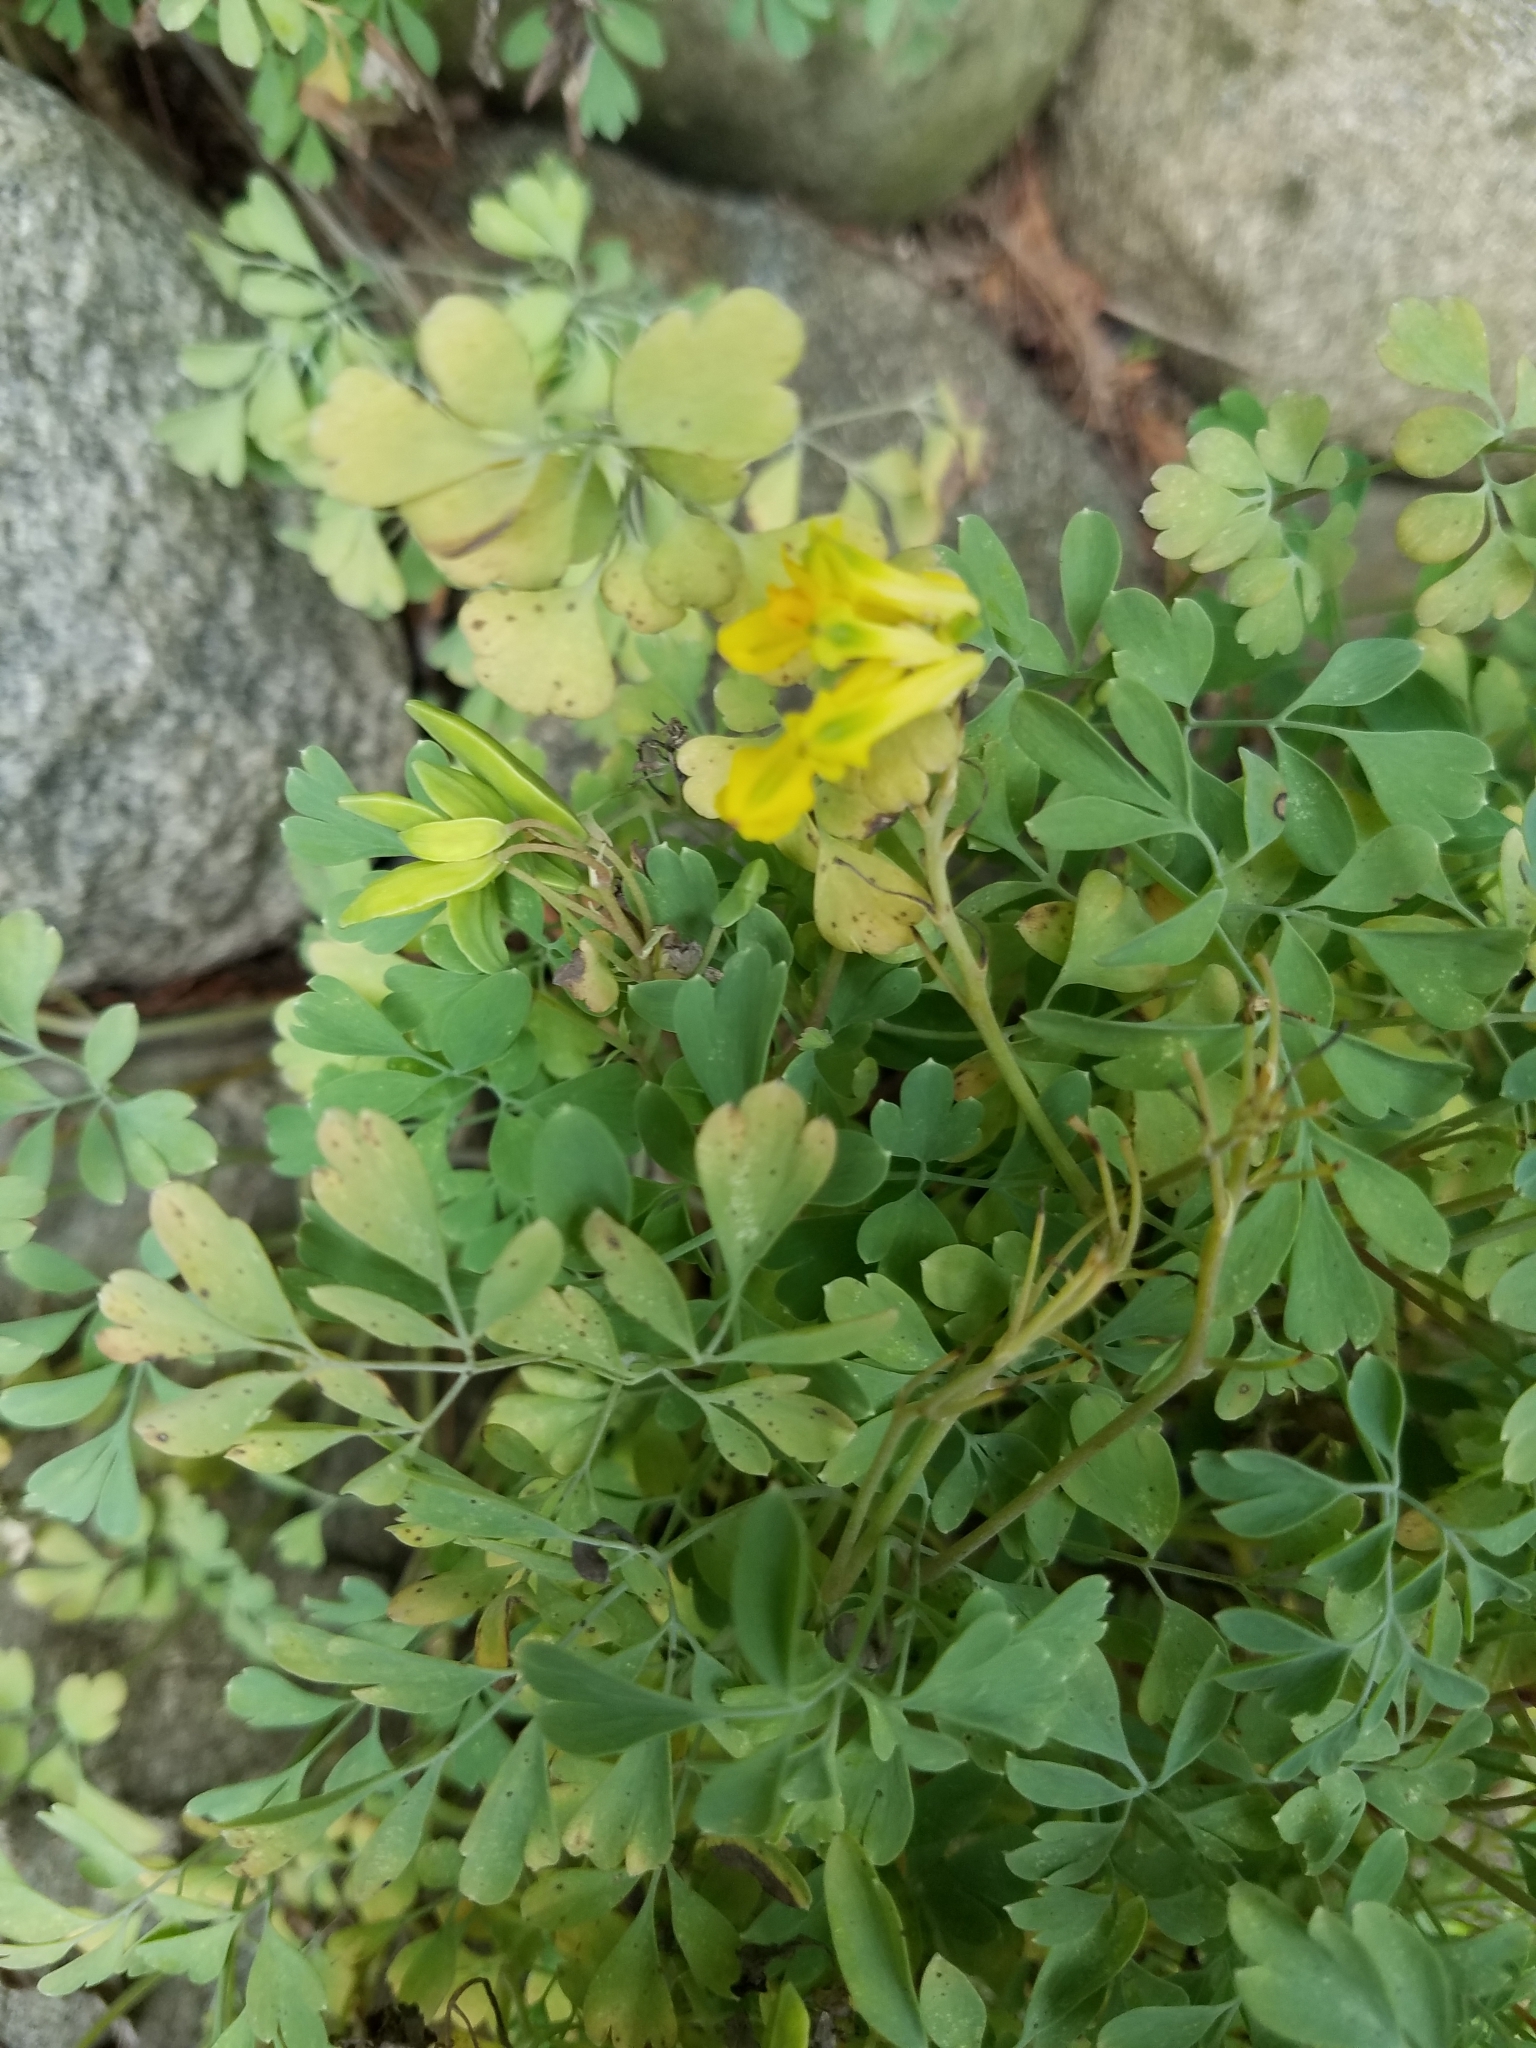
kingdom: Plantae
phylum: Tracheophyta
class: Magnoliopsida
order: Ranunculales
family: Papaveraceae
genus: Pseudofumaria
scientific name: Pseudofumaria lutea
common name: Yellow corydalis
